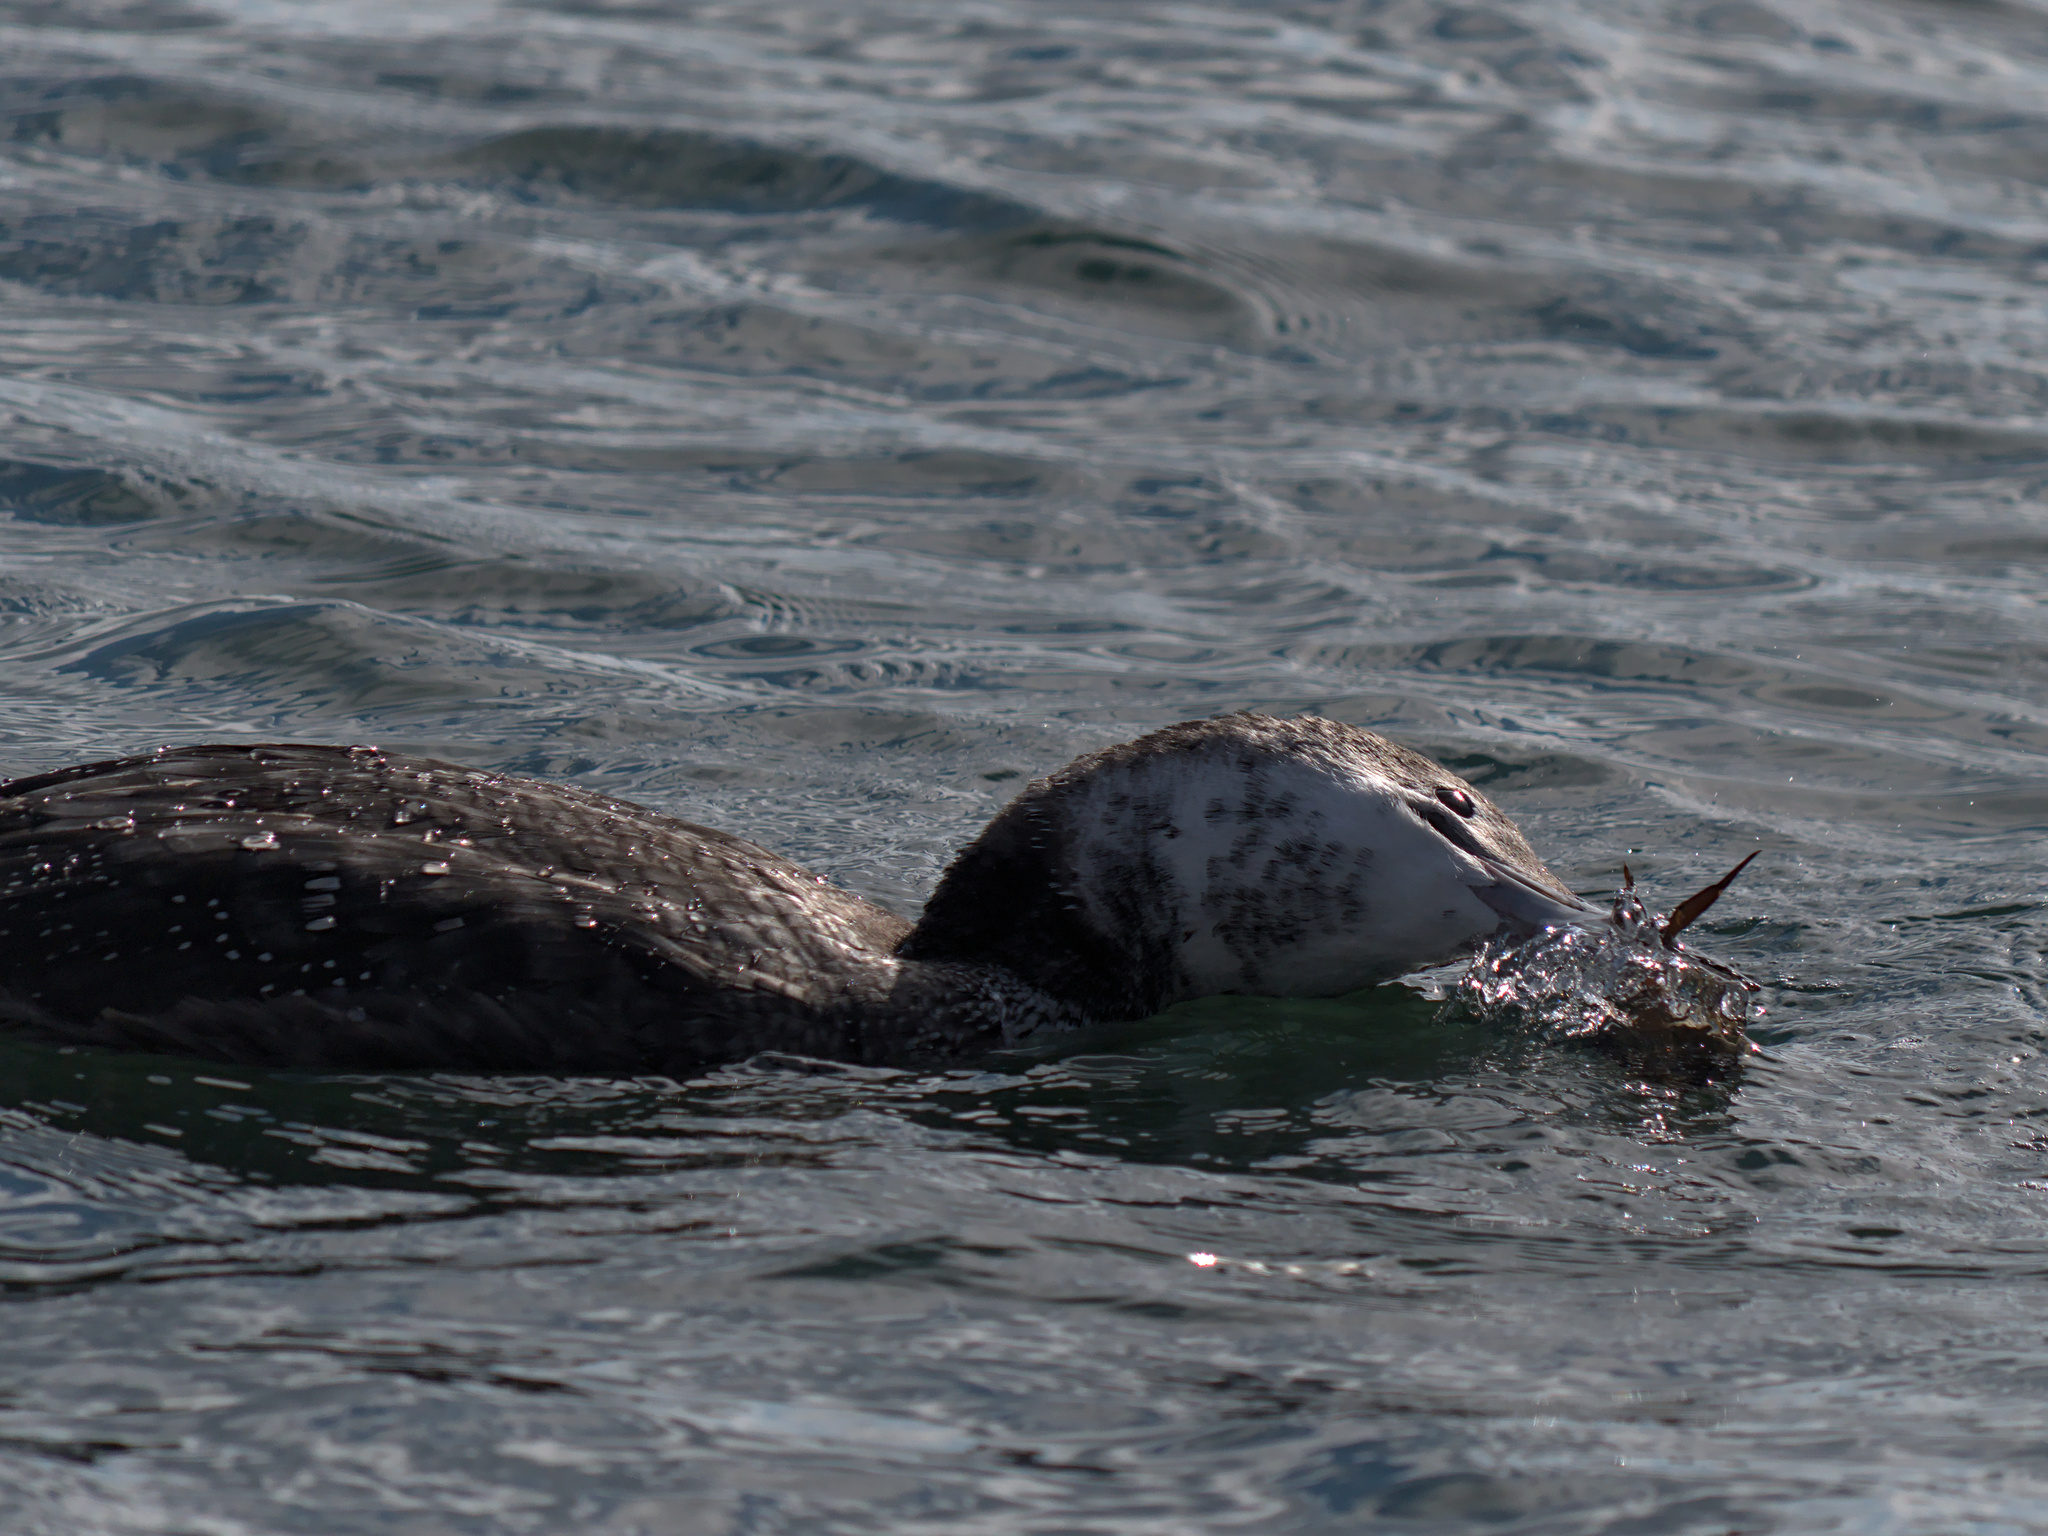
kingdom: Animalia
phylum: Arthropoda
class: Malacostraca
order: Decapoda
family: Carcinidae
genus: Carcinus
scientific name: Carcinus maenas
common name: European green crab
